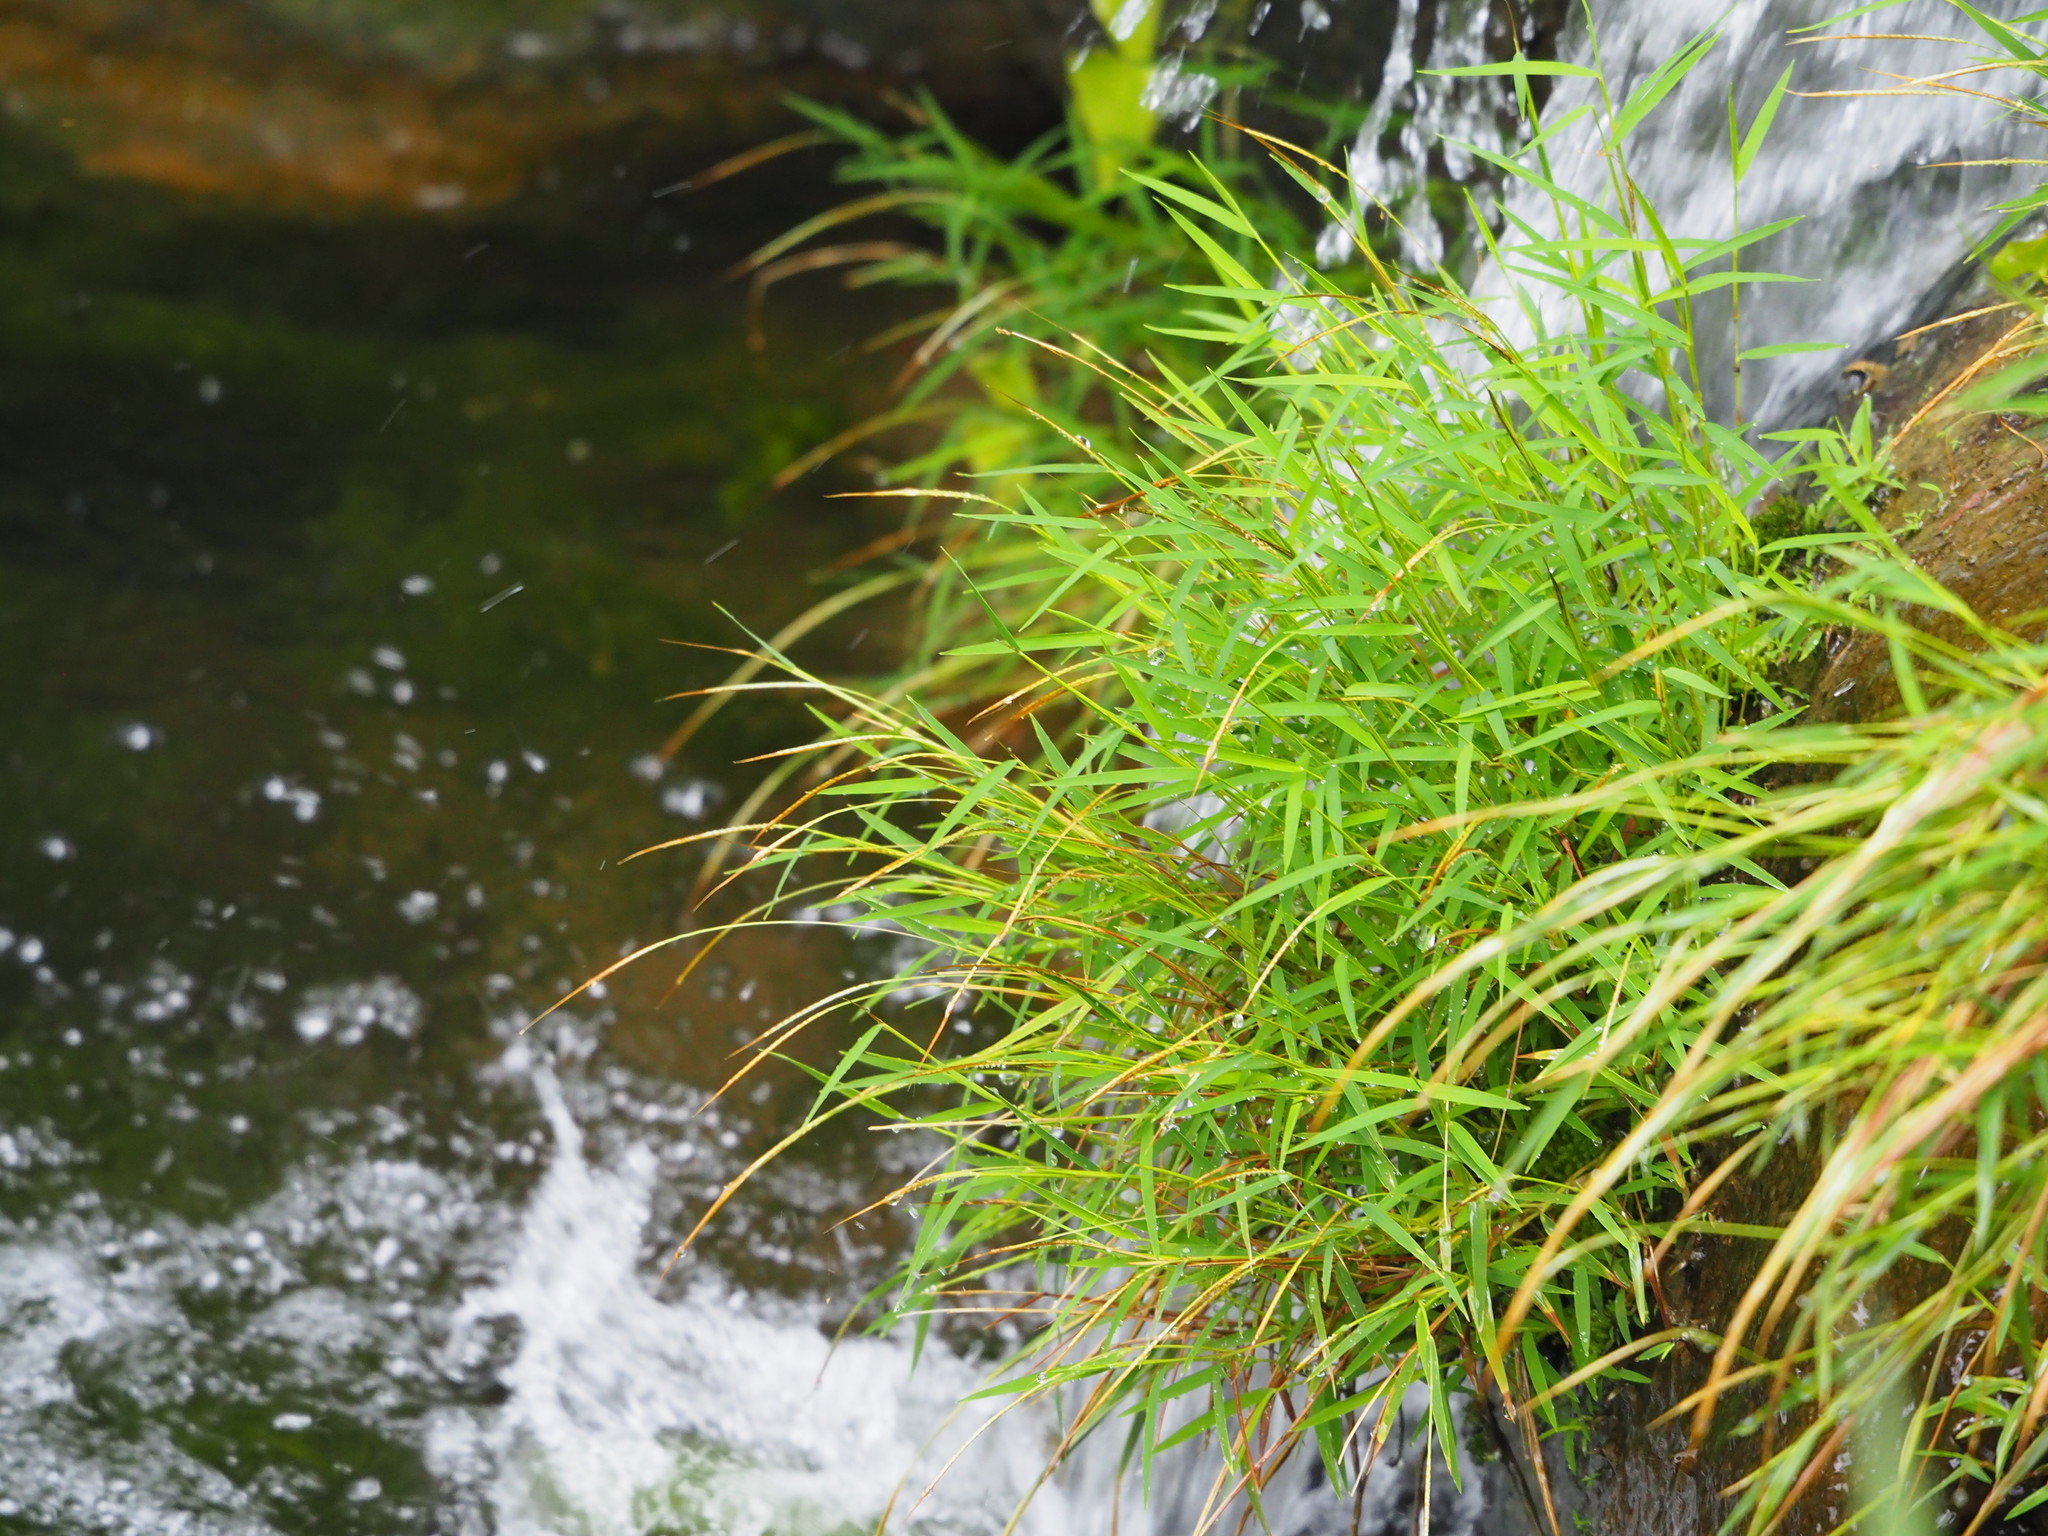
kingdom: Plantae
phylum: Tracheophyta
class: Liliopsida
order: Poales
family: Poaceae
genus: Pogonatherum
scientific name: Pogonatherum crinitum
